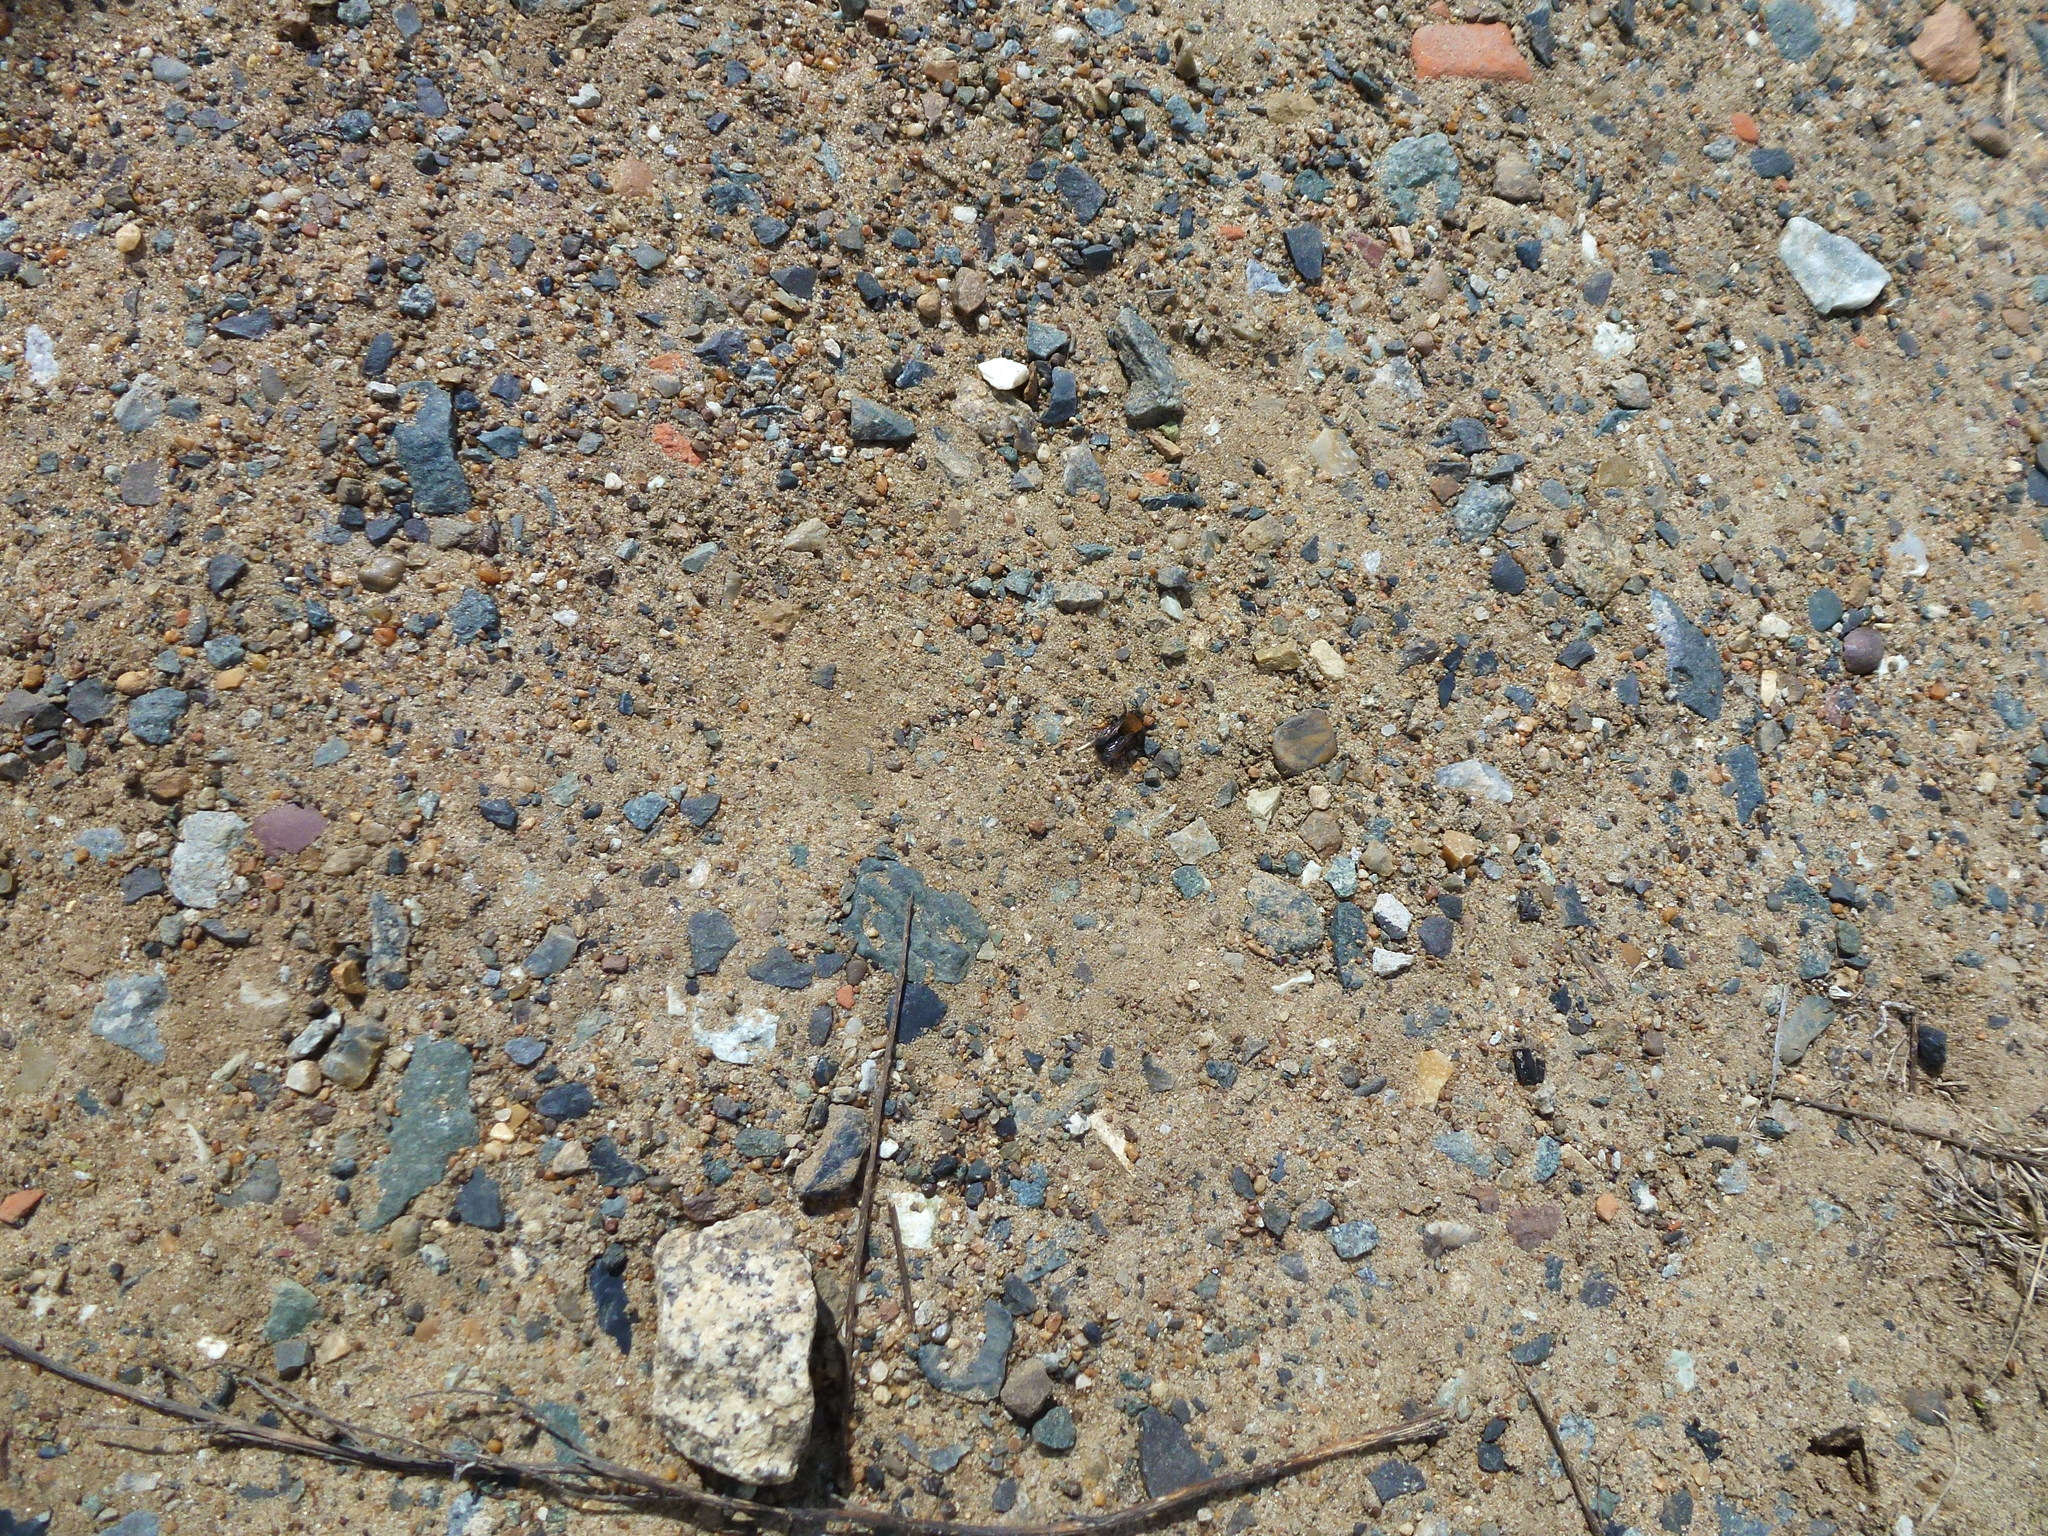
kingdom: Animalia
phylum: Arthropoda
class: Insecta
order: Hymenoptera
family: Andrenidae
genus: Andrena
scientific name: Andrena clarkella
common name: Clarke's mining bee
